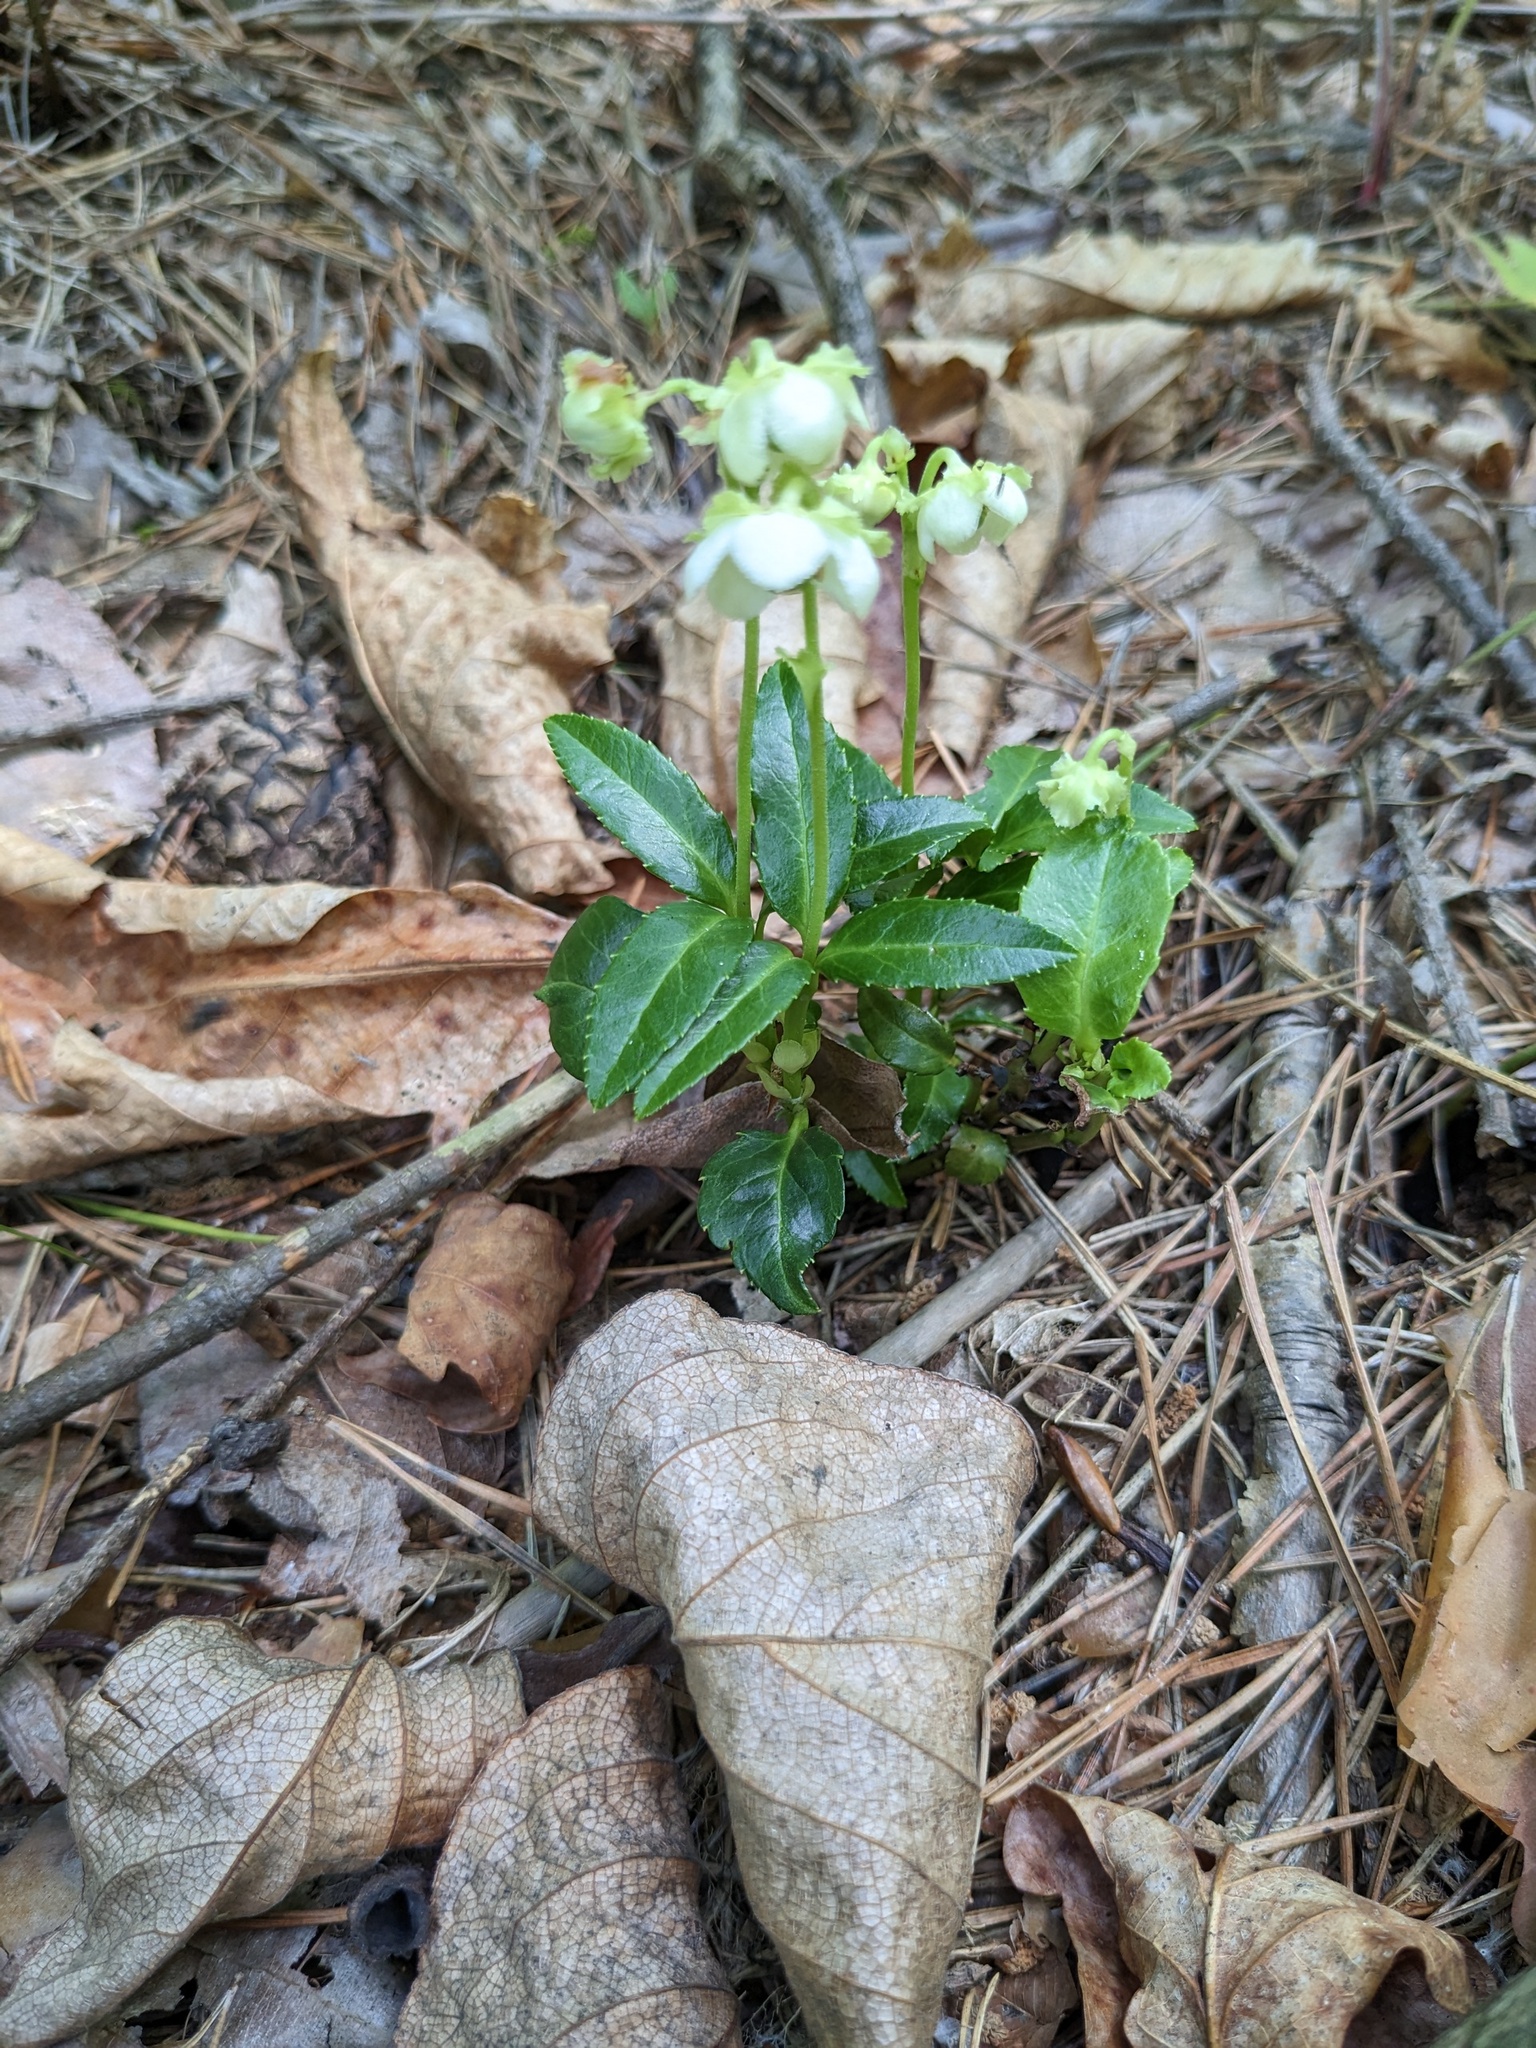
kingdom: Plantae
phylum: Tracheophyta
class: Magnoliopsida
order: Ericales
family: Ericaceae
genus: Chimaphila
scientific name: Chimaphila japonica
